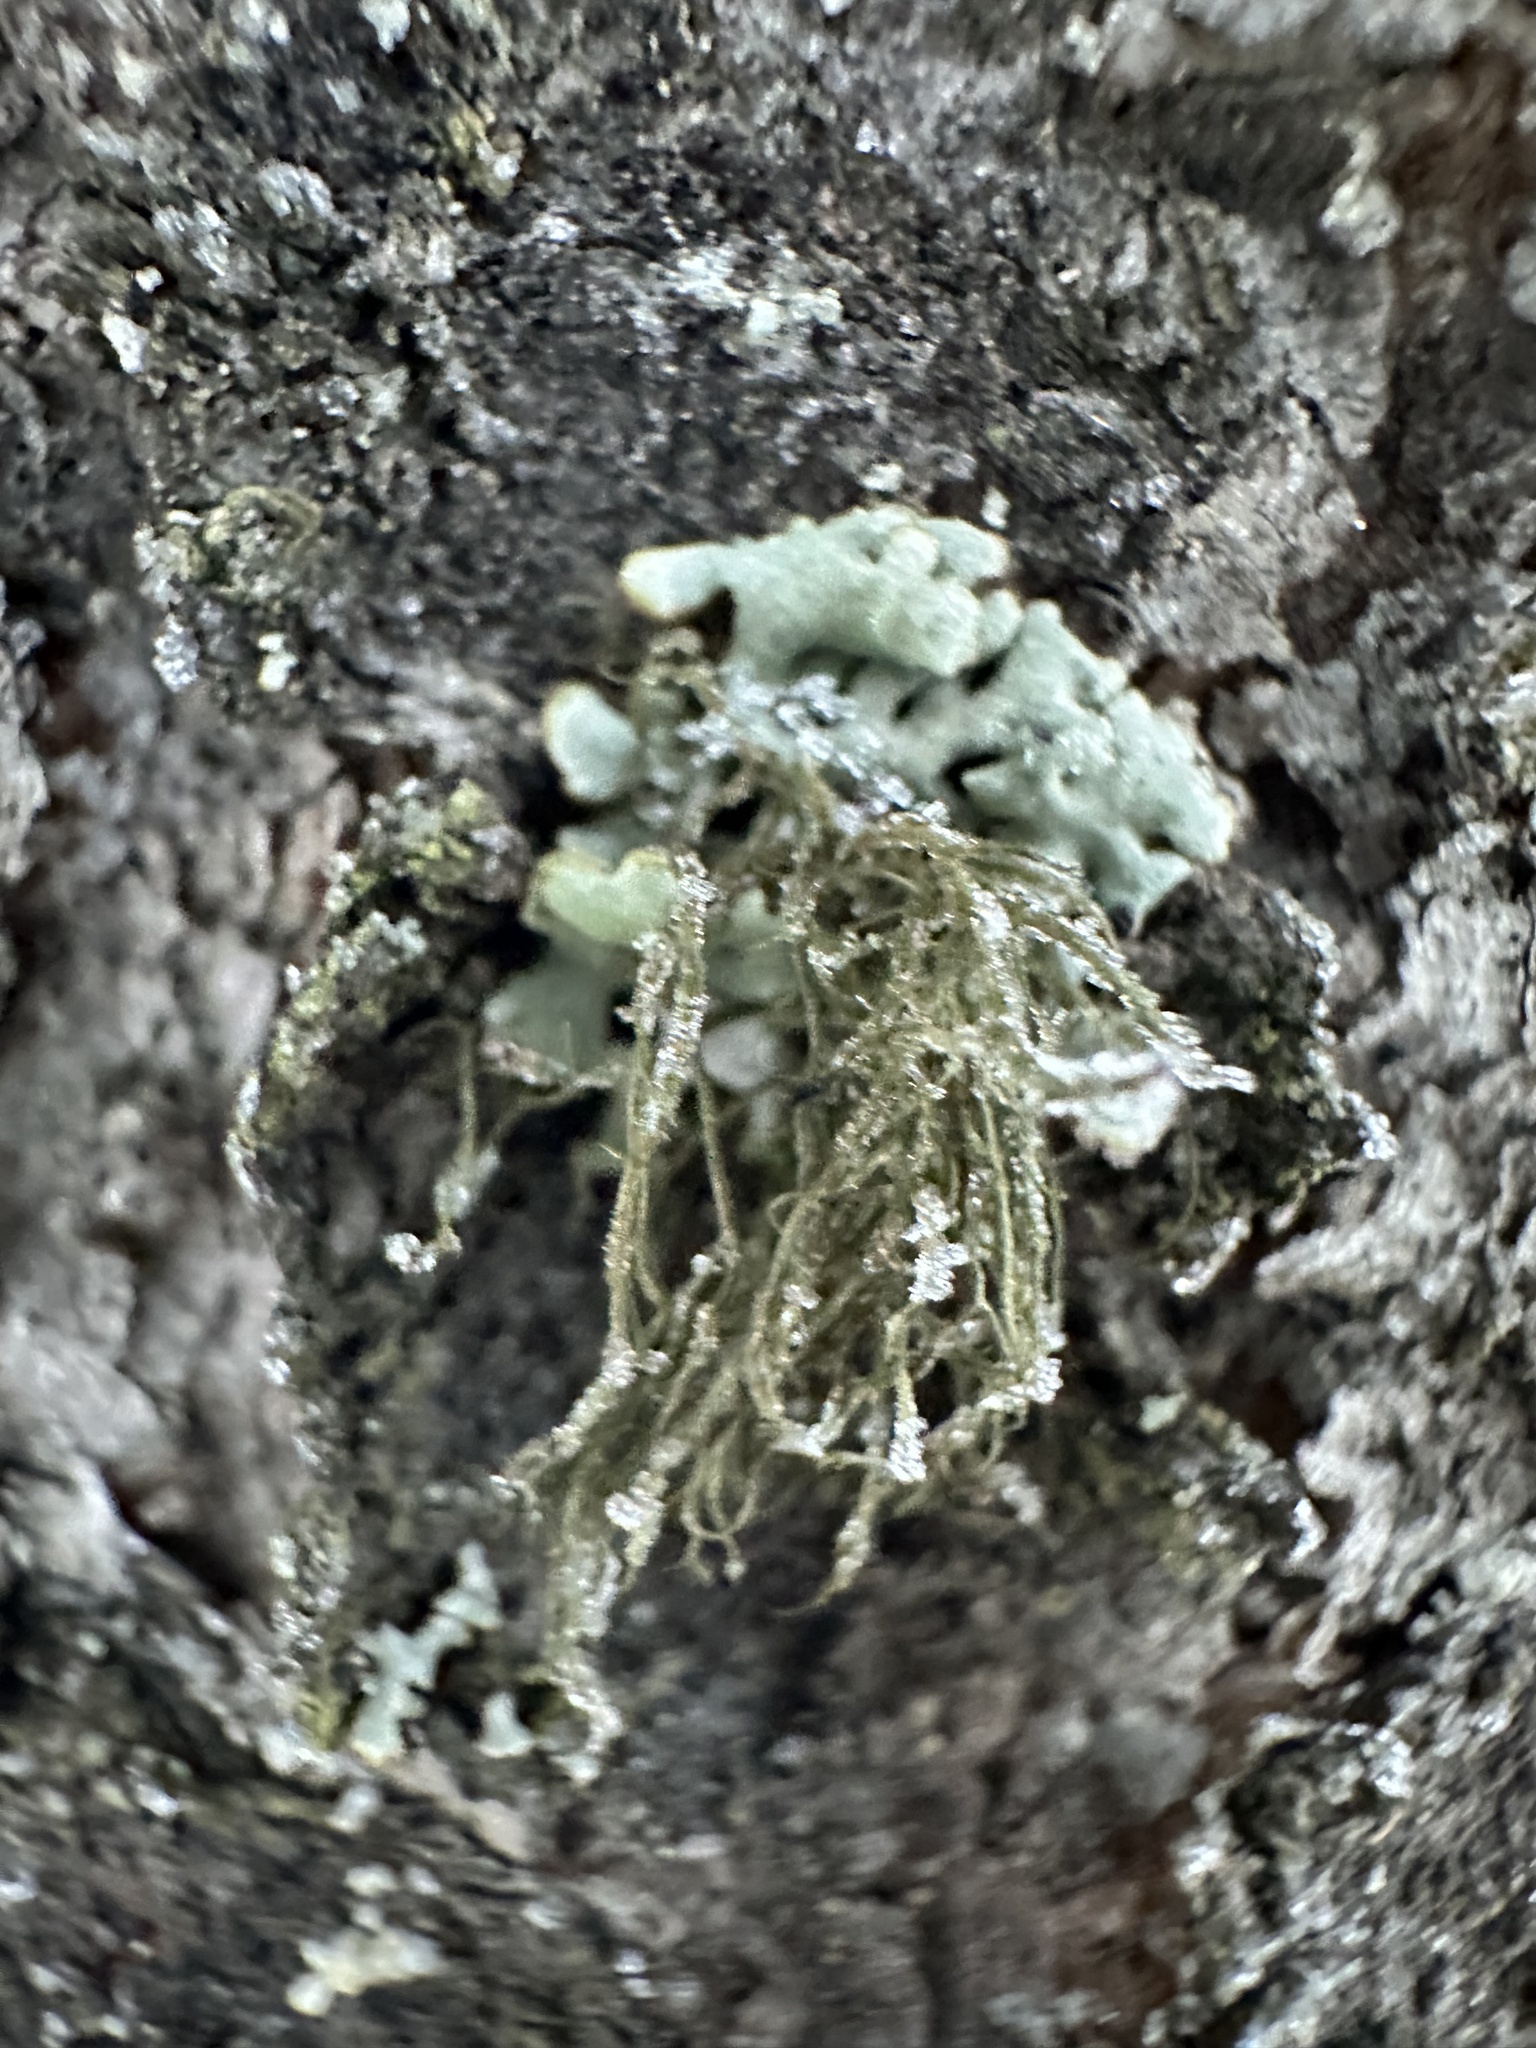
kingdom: Fungi
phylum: Ascomycota
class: Lecanoromycetes
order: Lecanorales
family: Parmeliaceae
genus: Bryoria
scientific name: Bryoria fuscescens
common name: Pale-footed horsehair lichen
